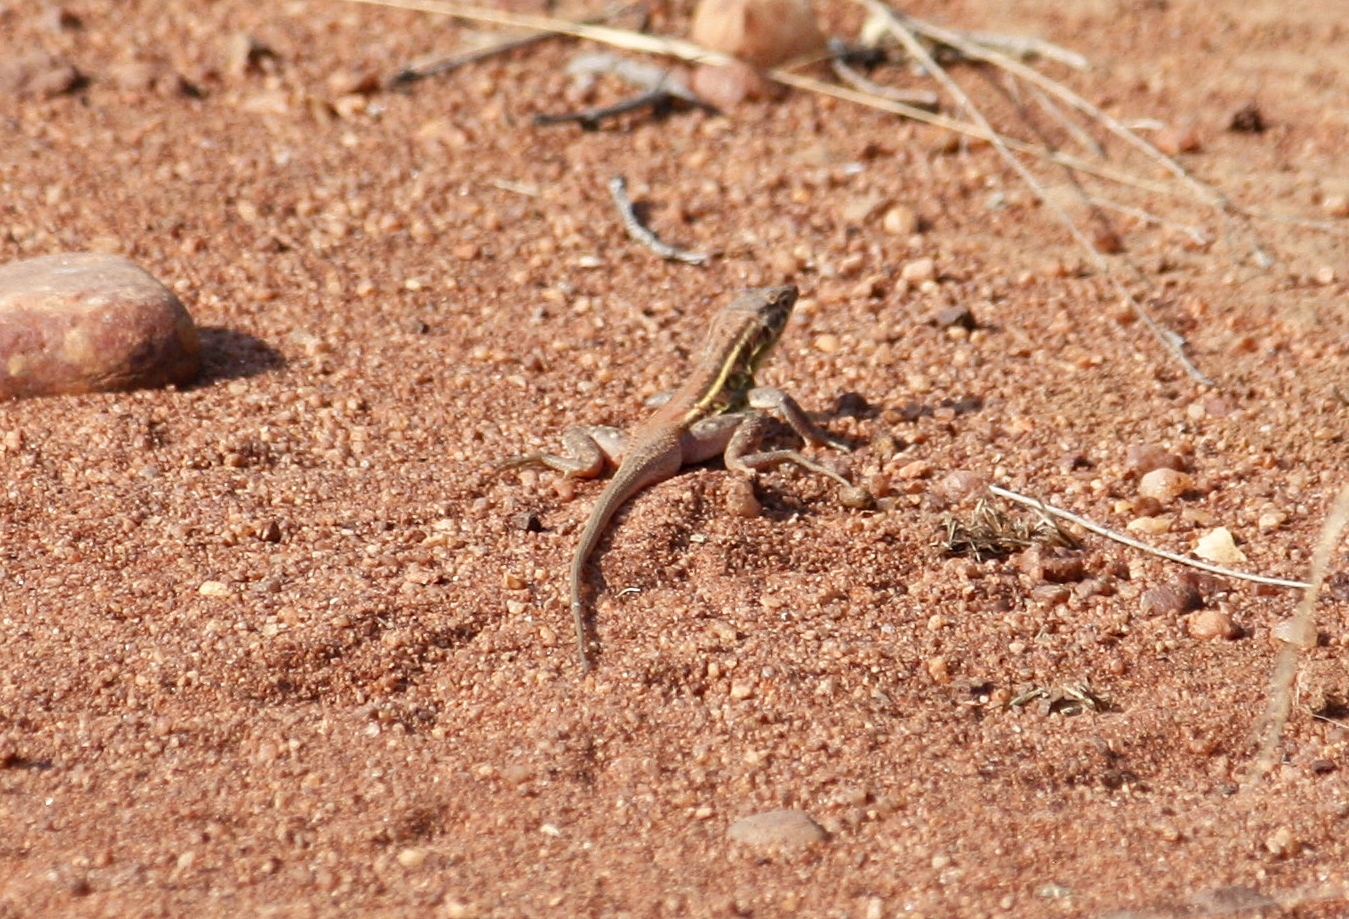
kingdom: Animalia
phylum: Chordata
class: Squamata
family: Lacertidae
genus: Pedioplanis
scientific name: Pedioplanis lineoocellata
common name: Spotted sand lizard
